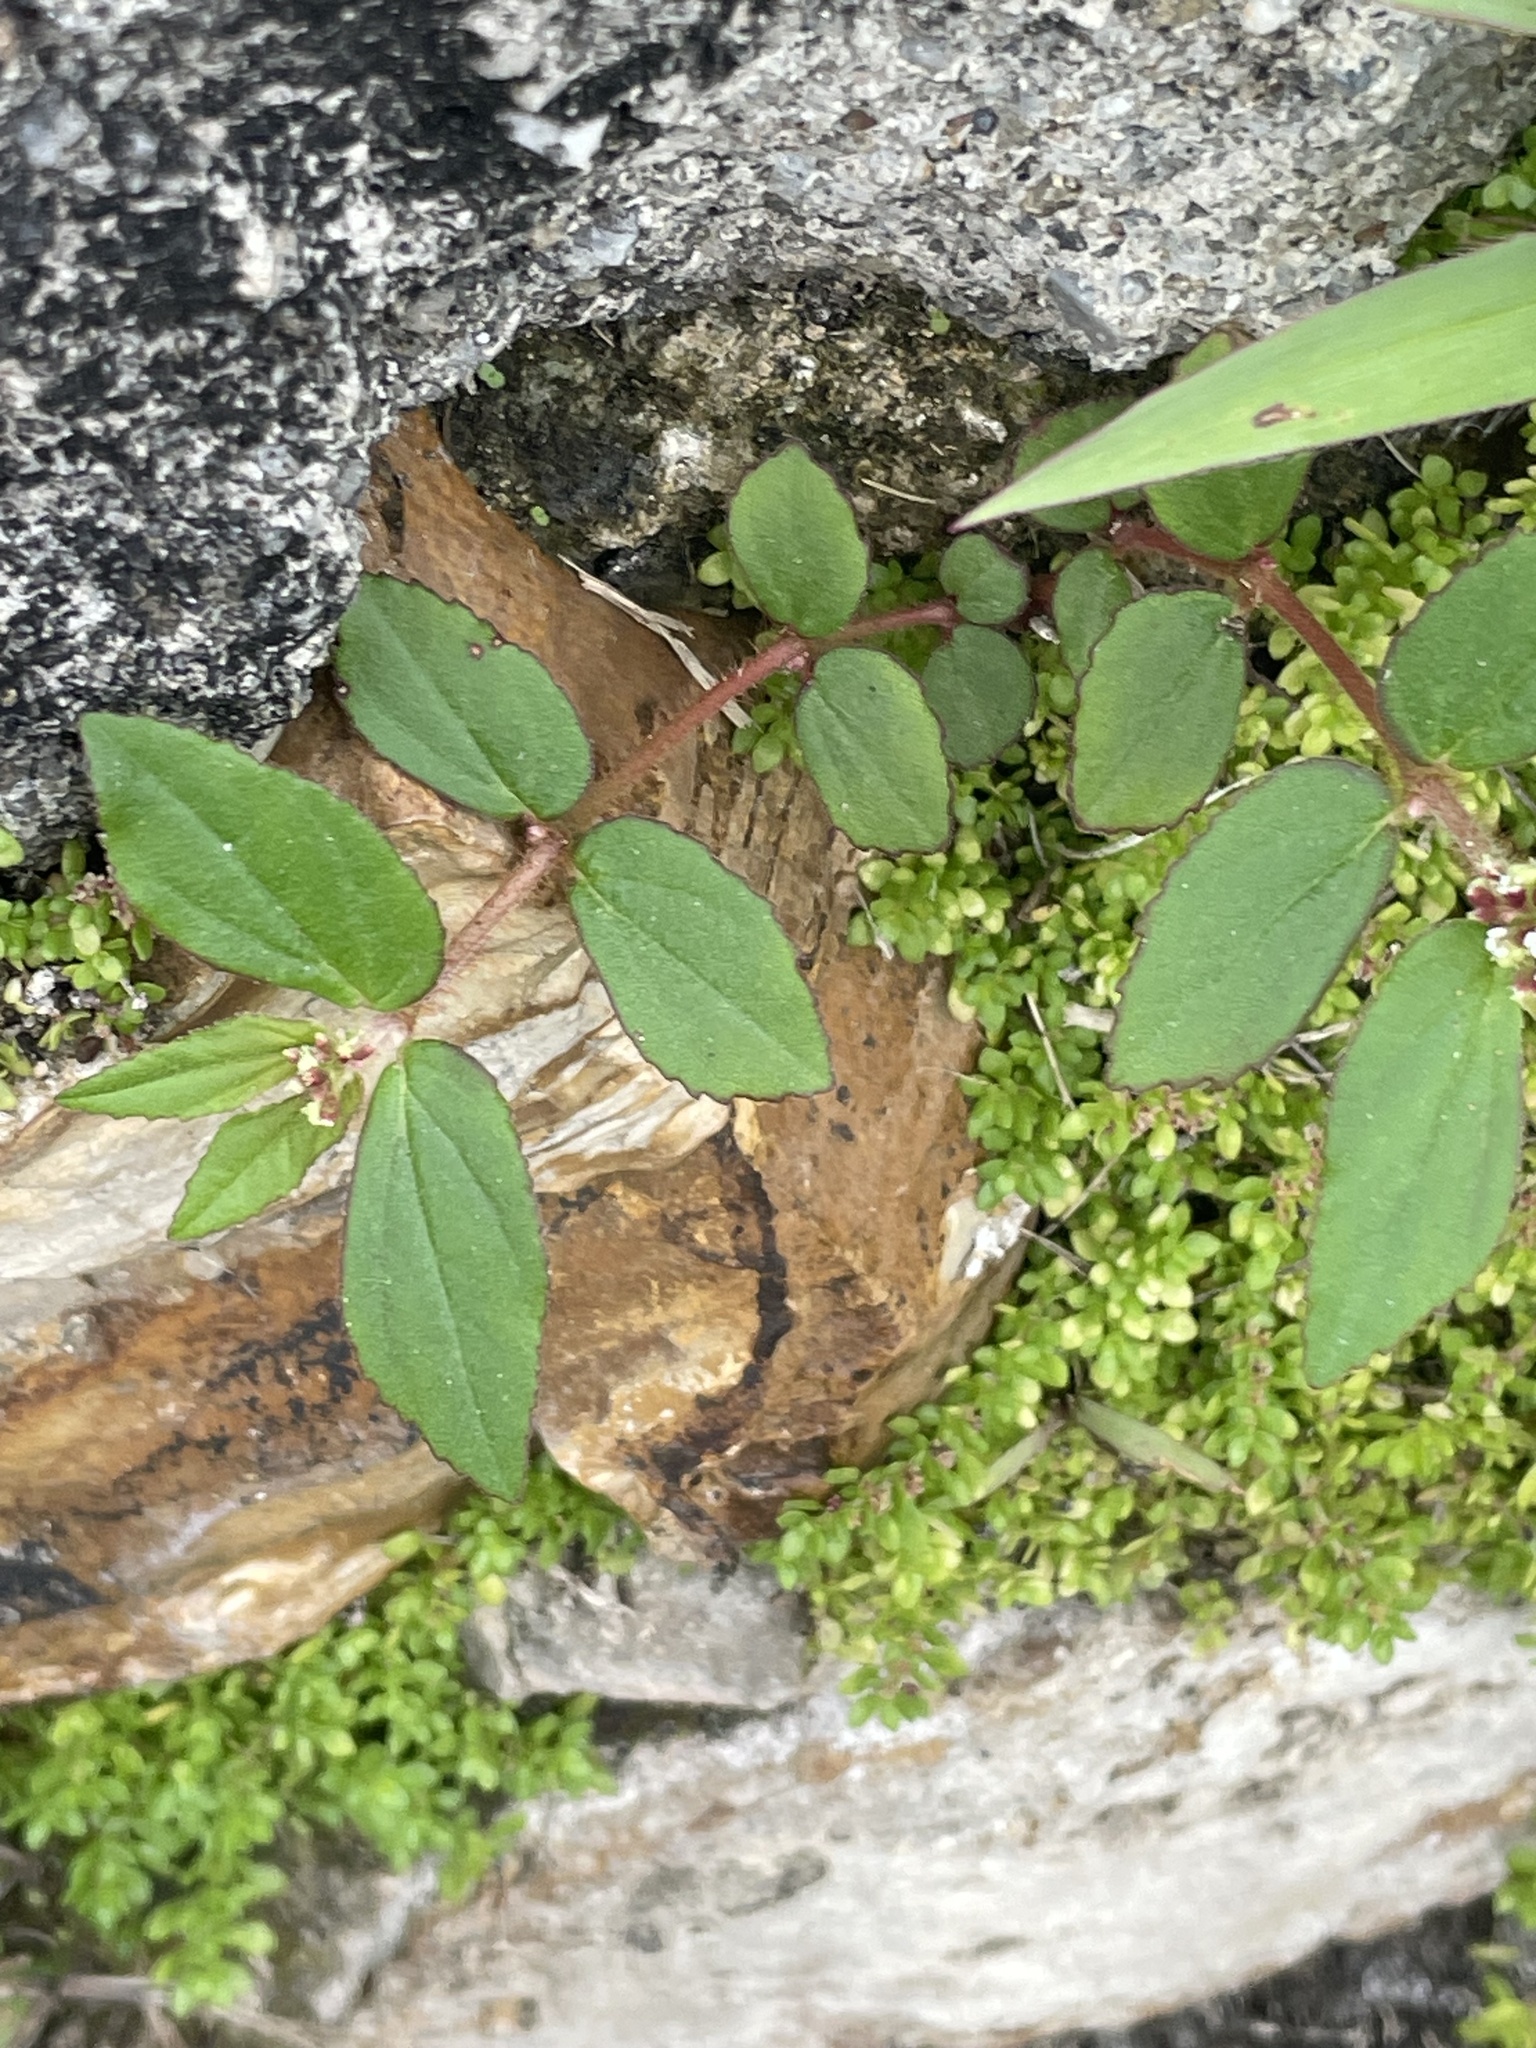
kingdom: Plantae
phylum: Tracheophyta
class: Magnoliopsida
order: Malpighiales
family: Euphorbiaceae
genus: Euphorbia
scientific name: Euphorbia hirta
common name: Pillpod sandmat
